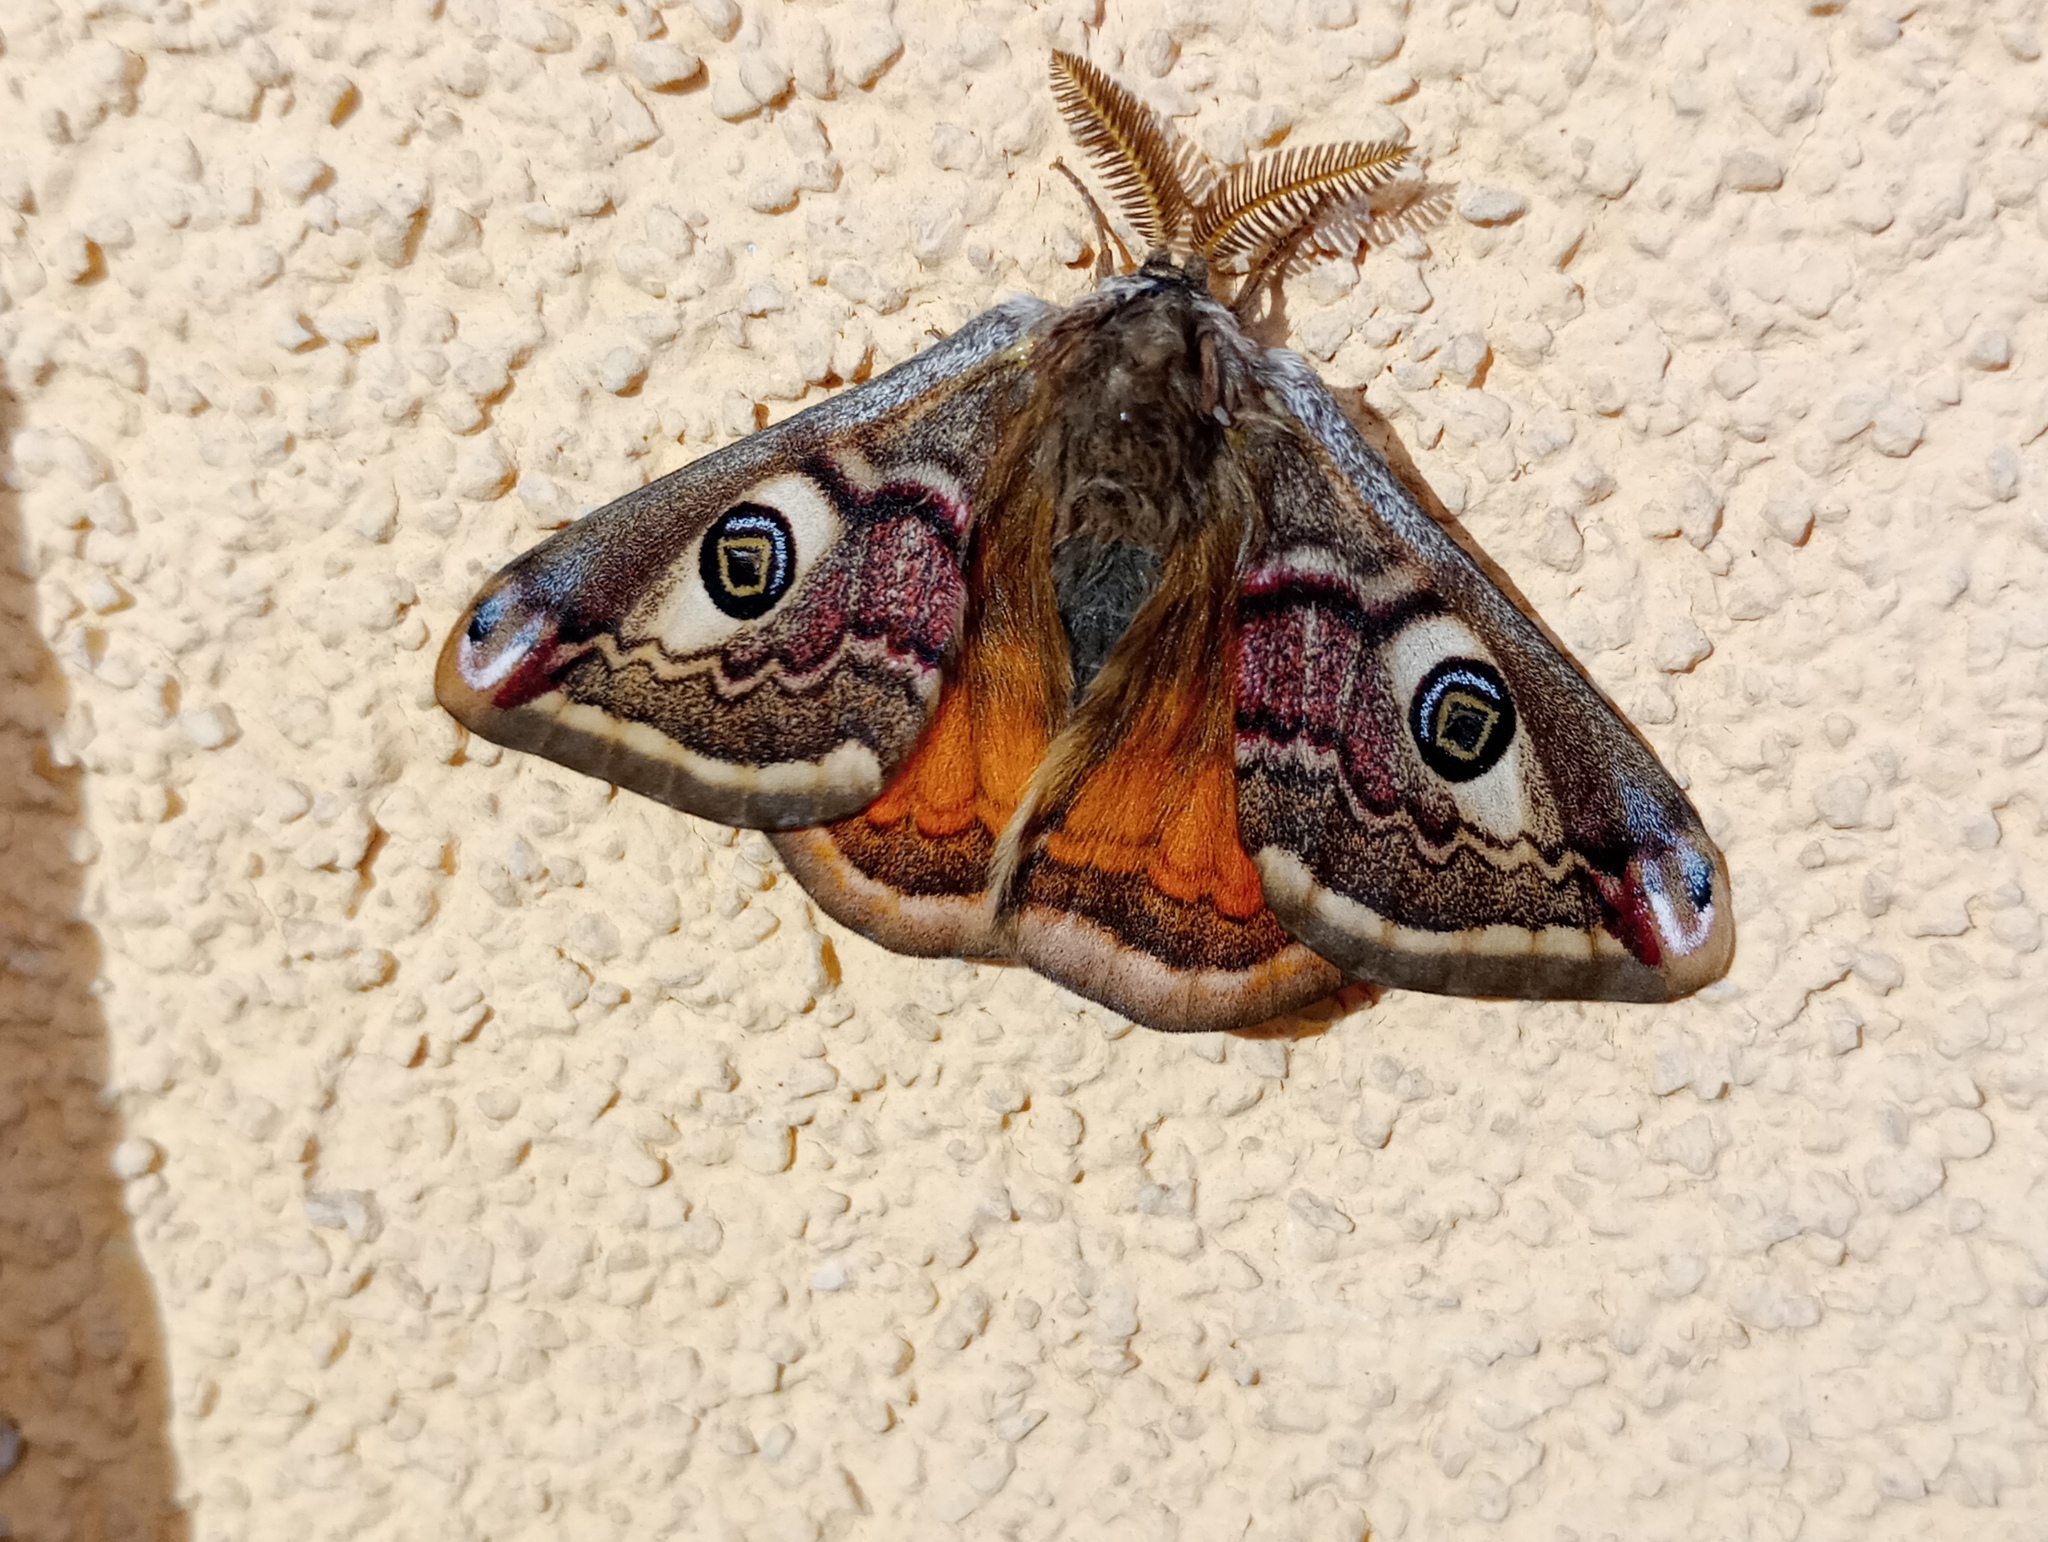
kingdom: Animalia
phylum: Arthropoda
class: Insecta
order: Lepidoptera
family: Saturniidae
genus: Saturnia
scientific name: Saturnia pavonia
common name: Emperor moth
